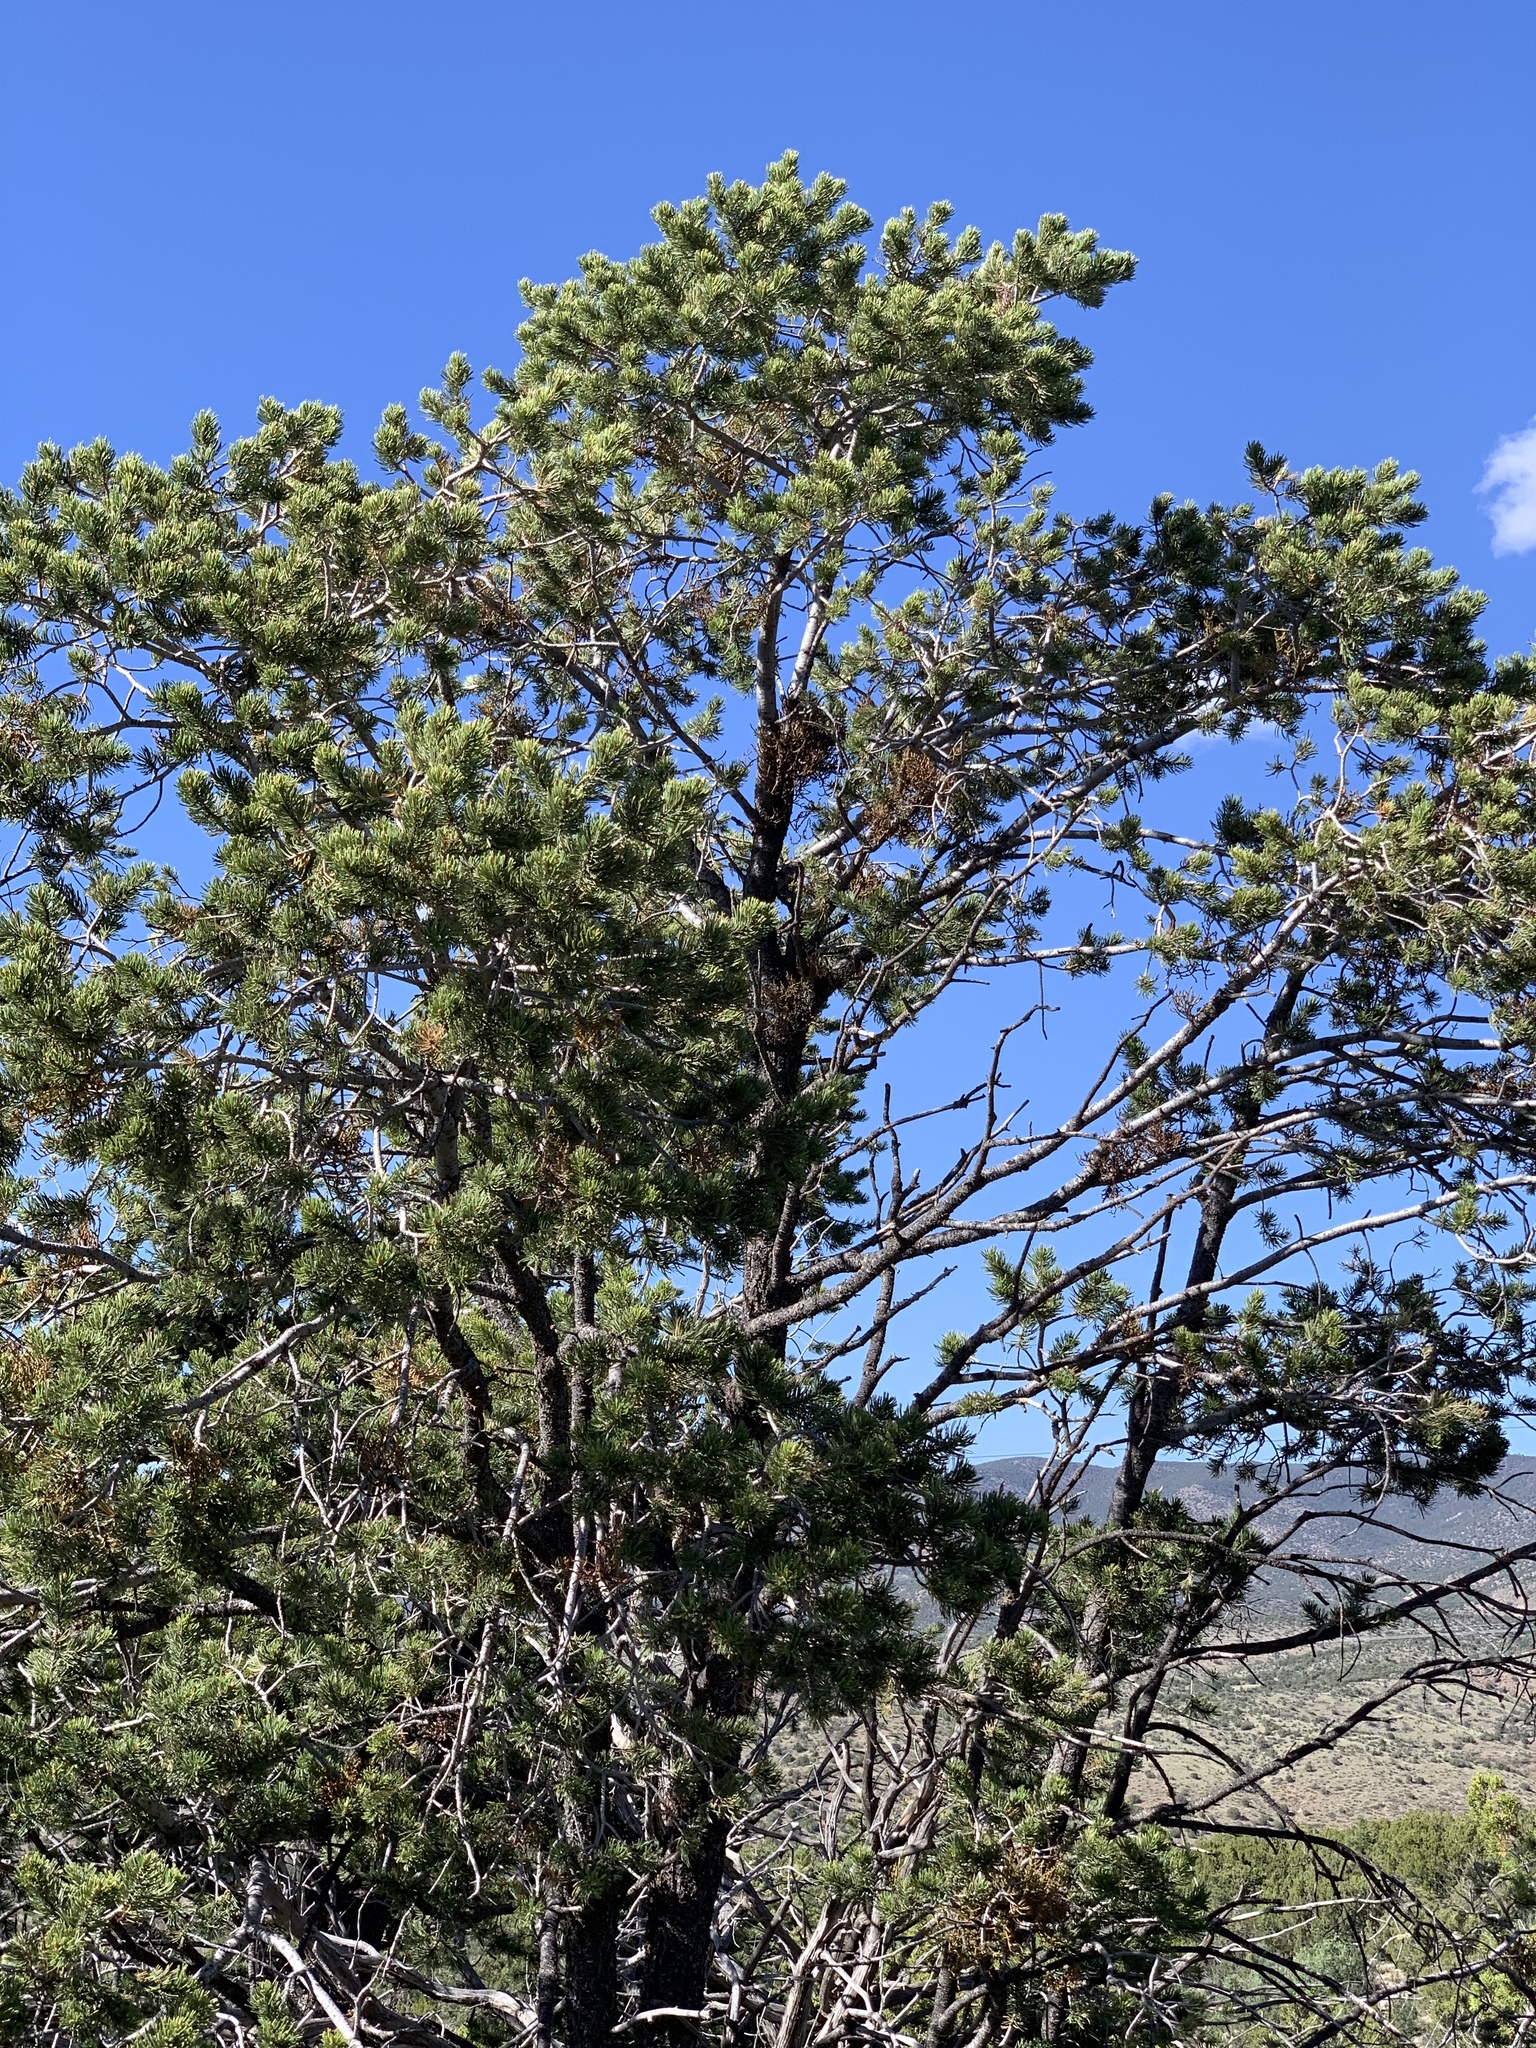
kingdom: Plantae
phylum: Tracheophyta
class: Pinopsida
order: Pinales
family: Pinaceae
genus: Pinus
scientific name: Pinus edulis
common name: Colorado pinyon
